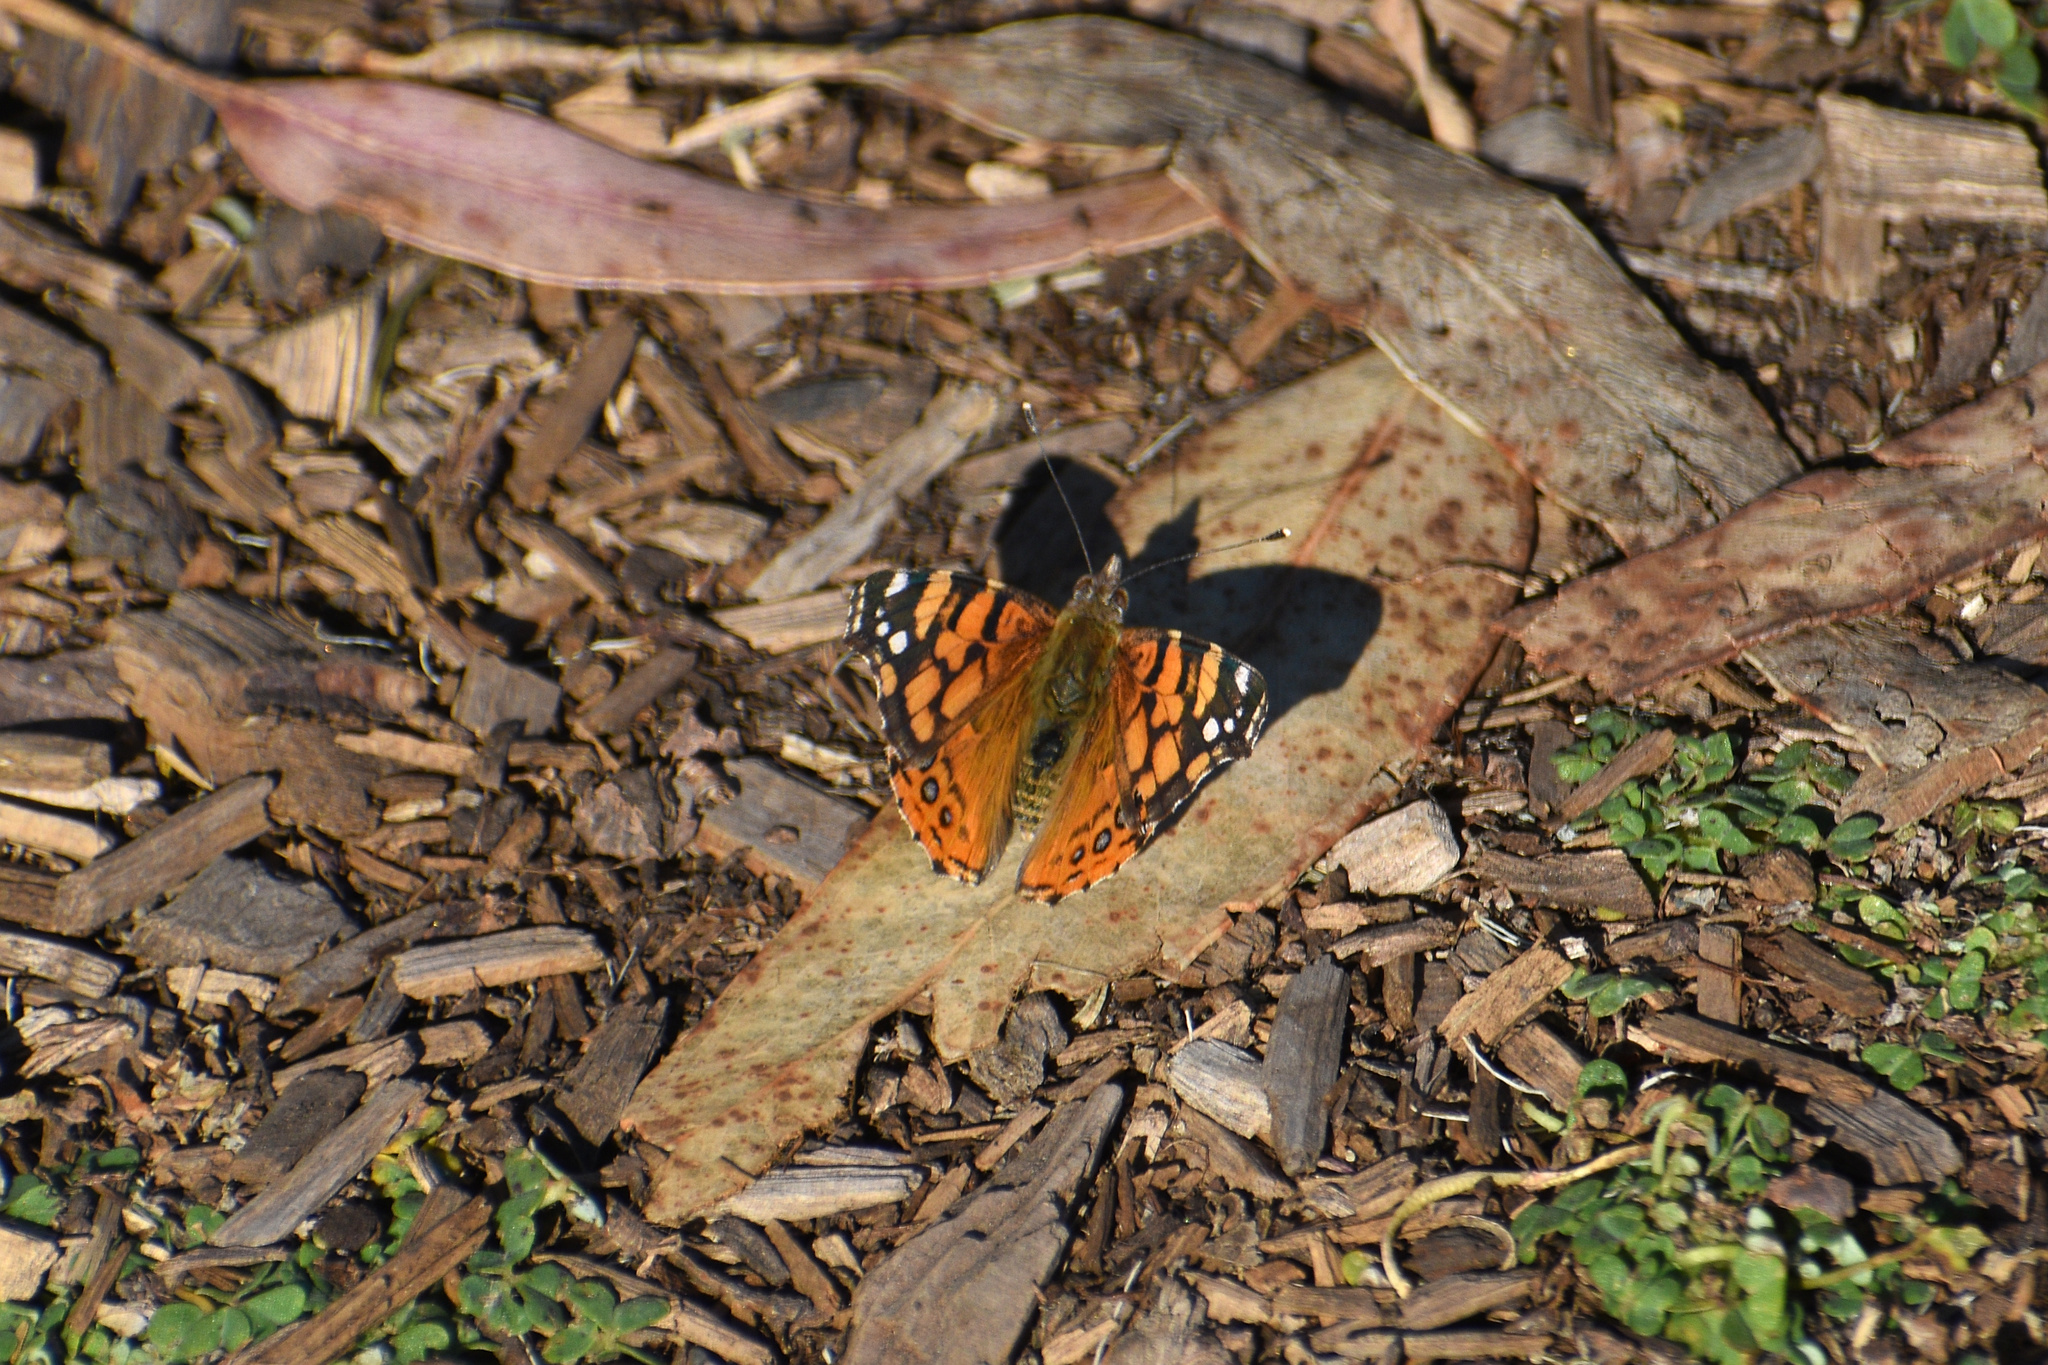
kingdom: Animalia
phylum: Arthropoda
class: Insecta
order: Lepidoptera
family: Nymphalidae
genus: Vanessa
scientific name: Vanessa annabella
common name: West coast lady
